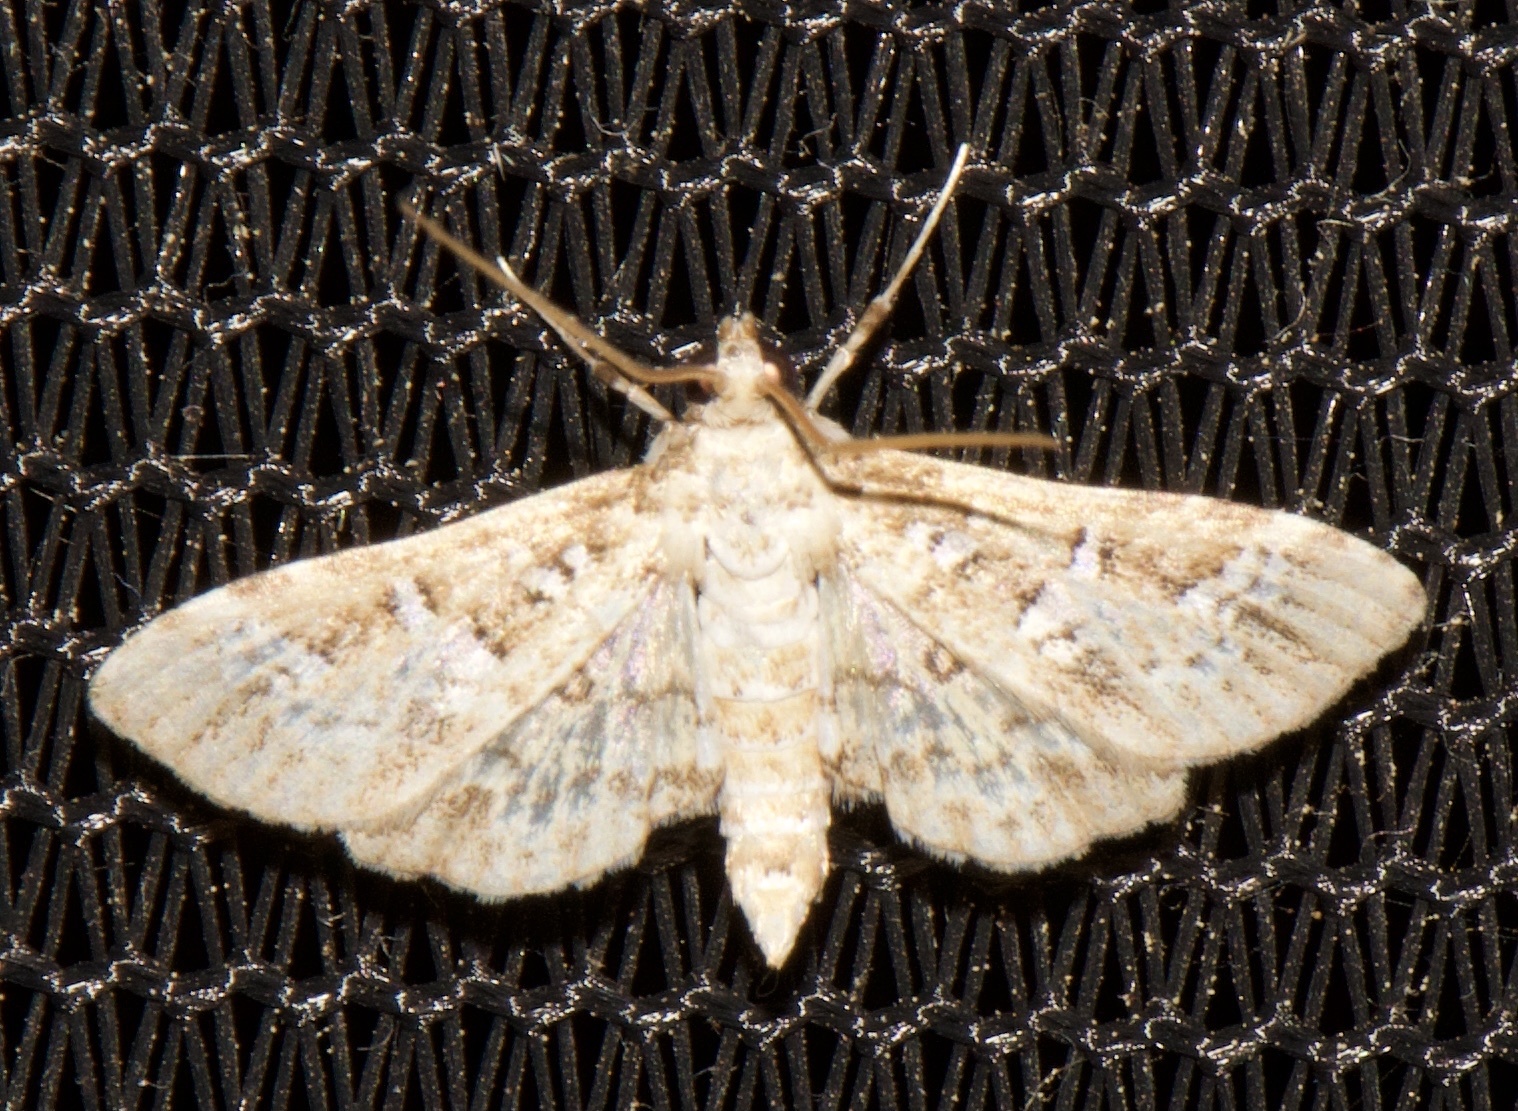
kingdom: Animalia
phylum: Arthropoda
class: Insecta
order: Lepidoptera
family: Crambidae
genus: Samea
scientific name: Samea multiplicalis
